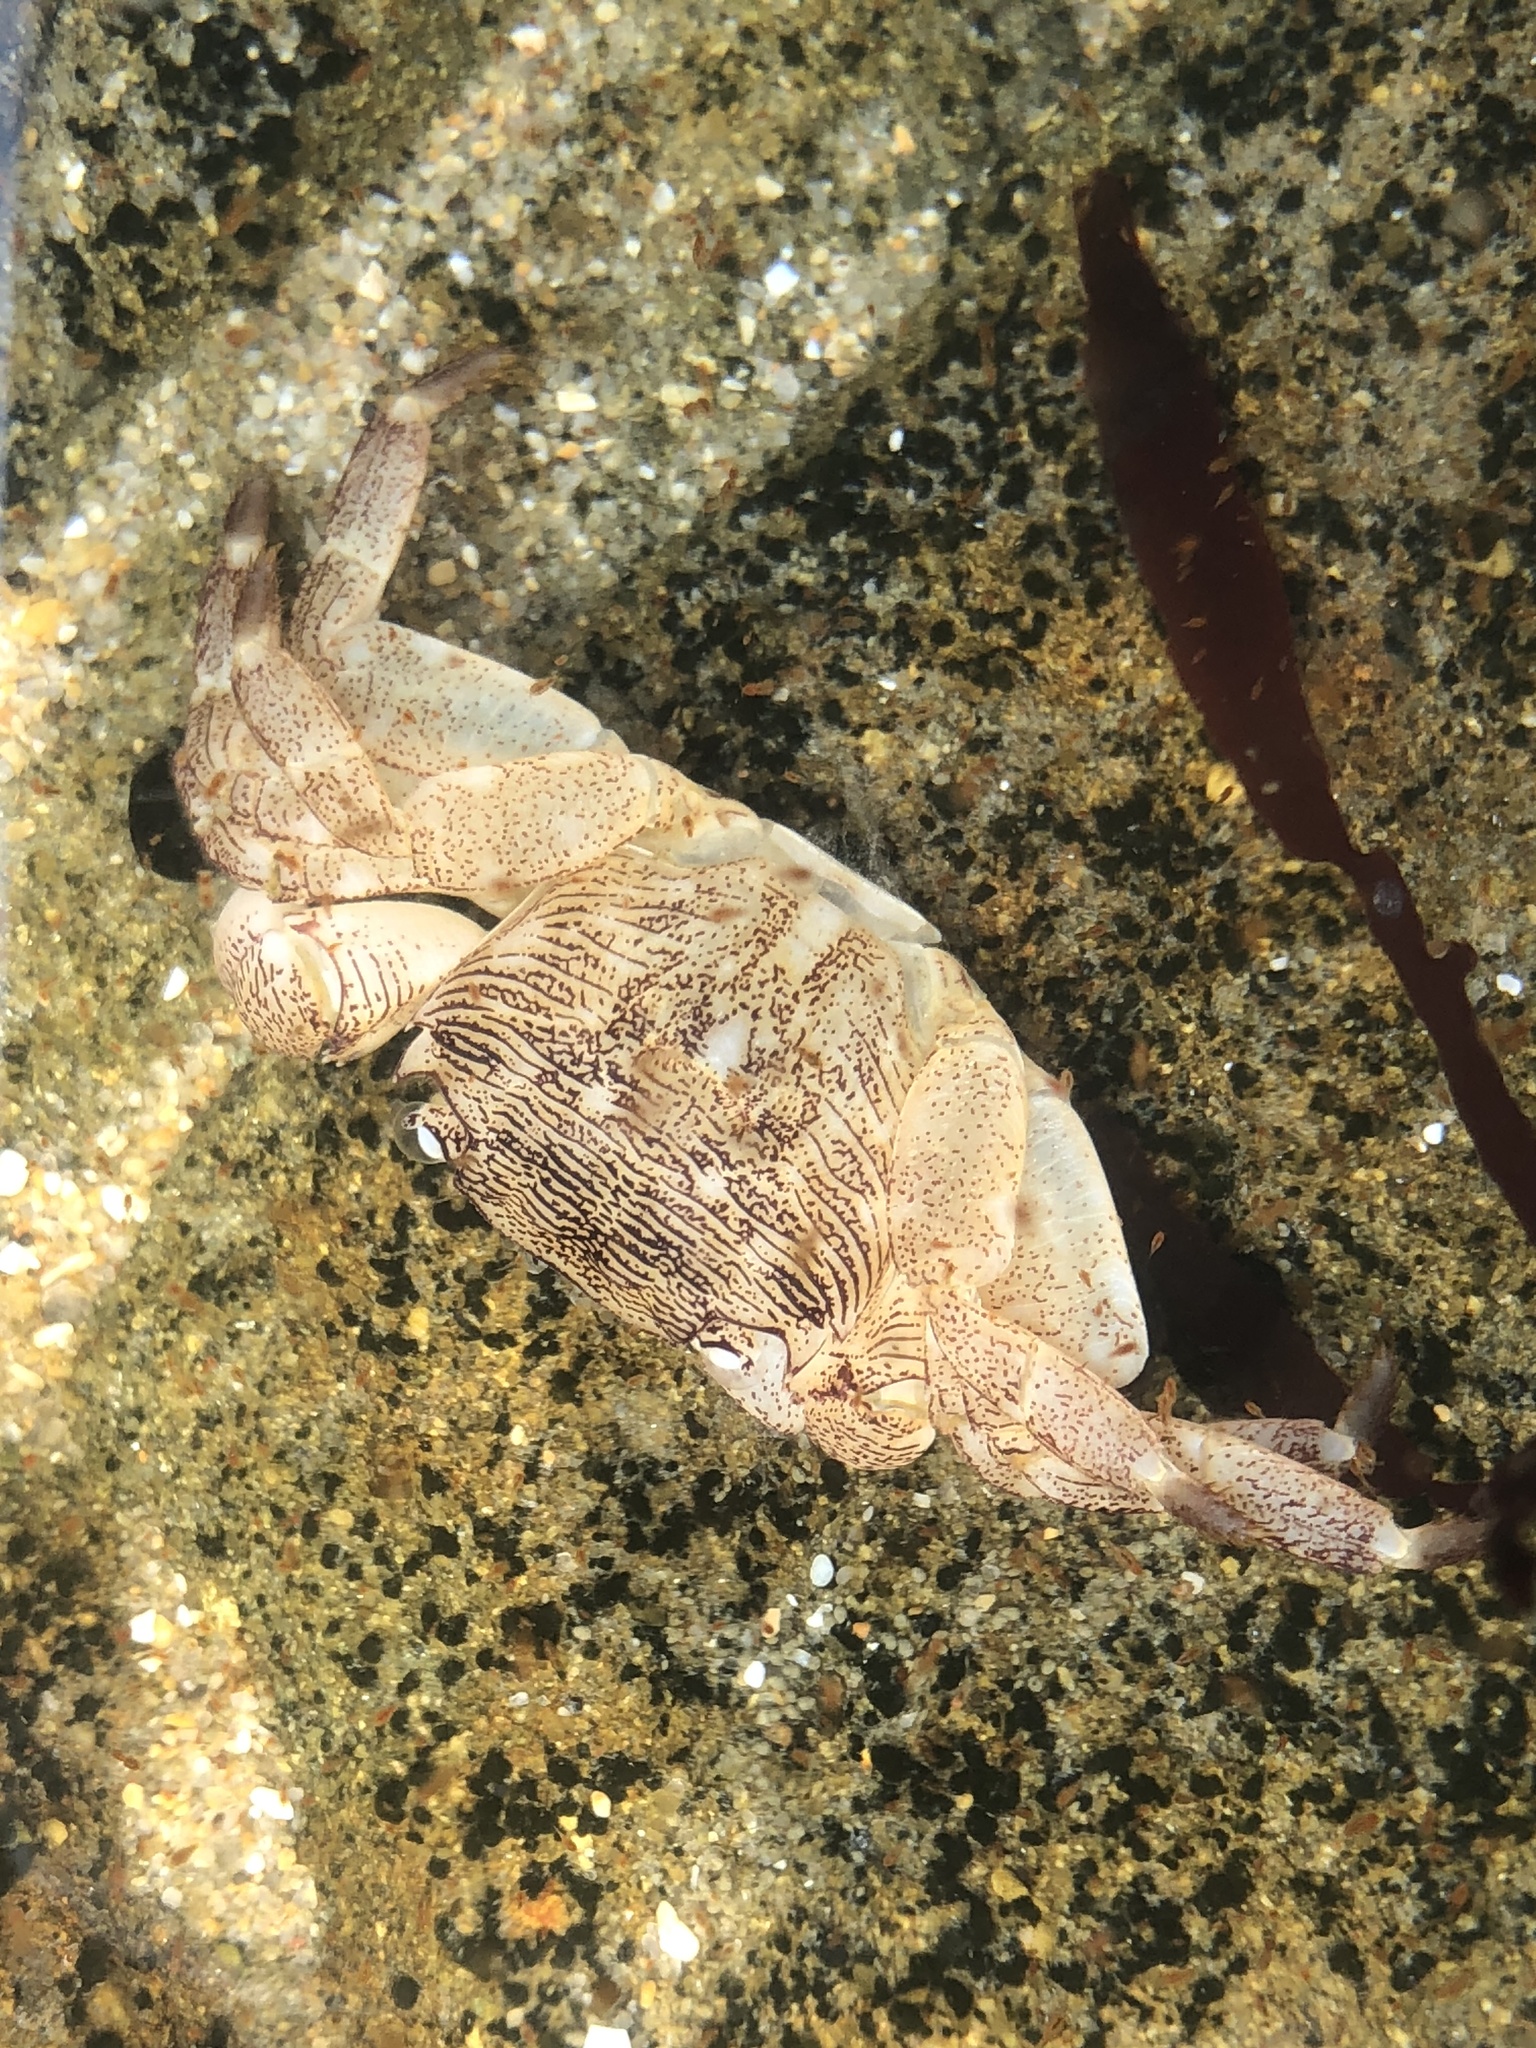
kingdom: Animalia
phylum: Arthropoda
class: Malacostraca
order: Decapoda
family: Grapsidae
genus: Pachygrapsus
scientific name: Pachygrapsus crassipes
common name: Striped shore crab
